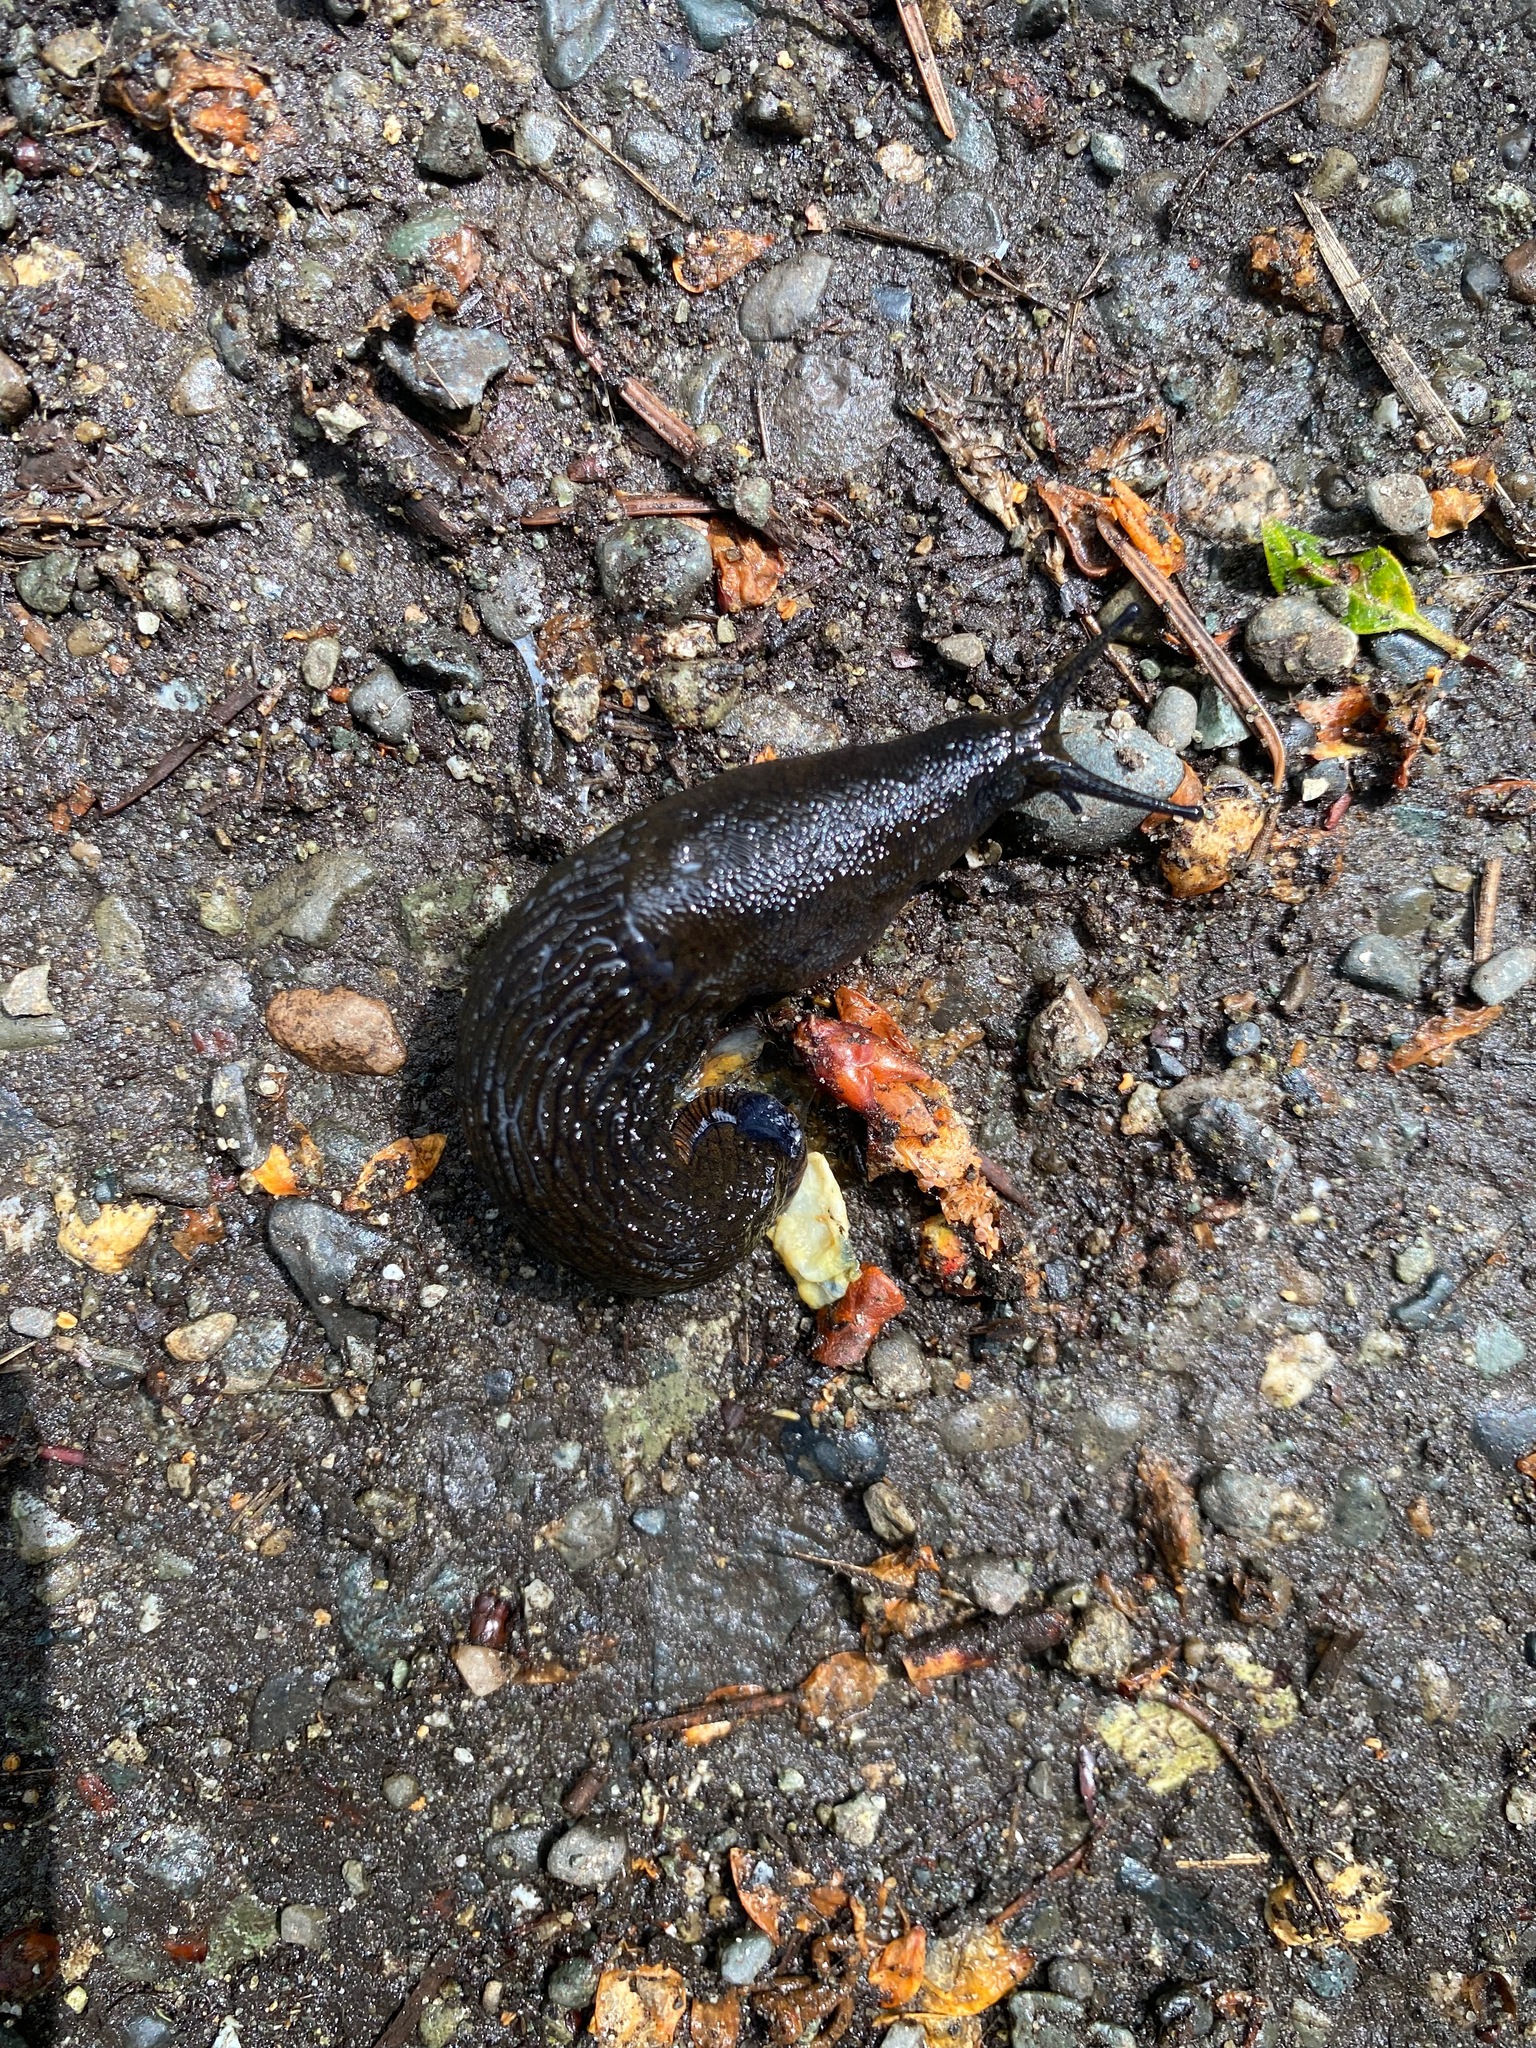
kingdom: Animalia
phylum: Mollusca
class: Gastropoda
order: Stylommatophora
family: Arionidae
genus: Arion
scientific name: Arion
